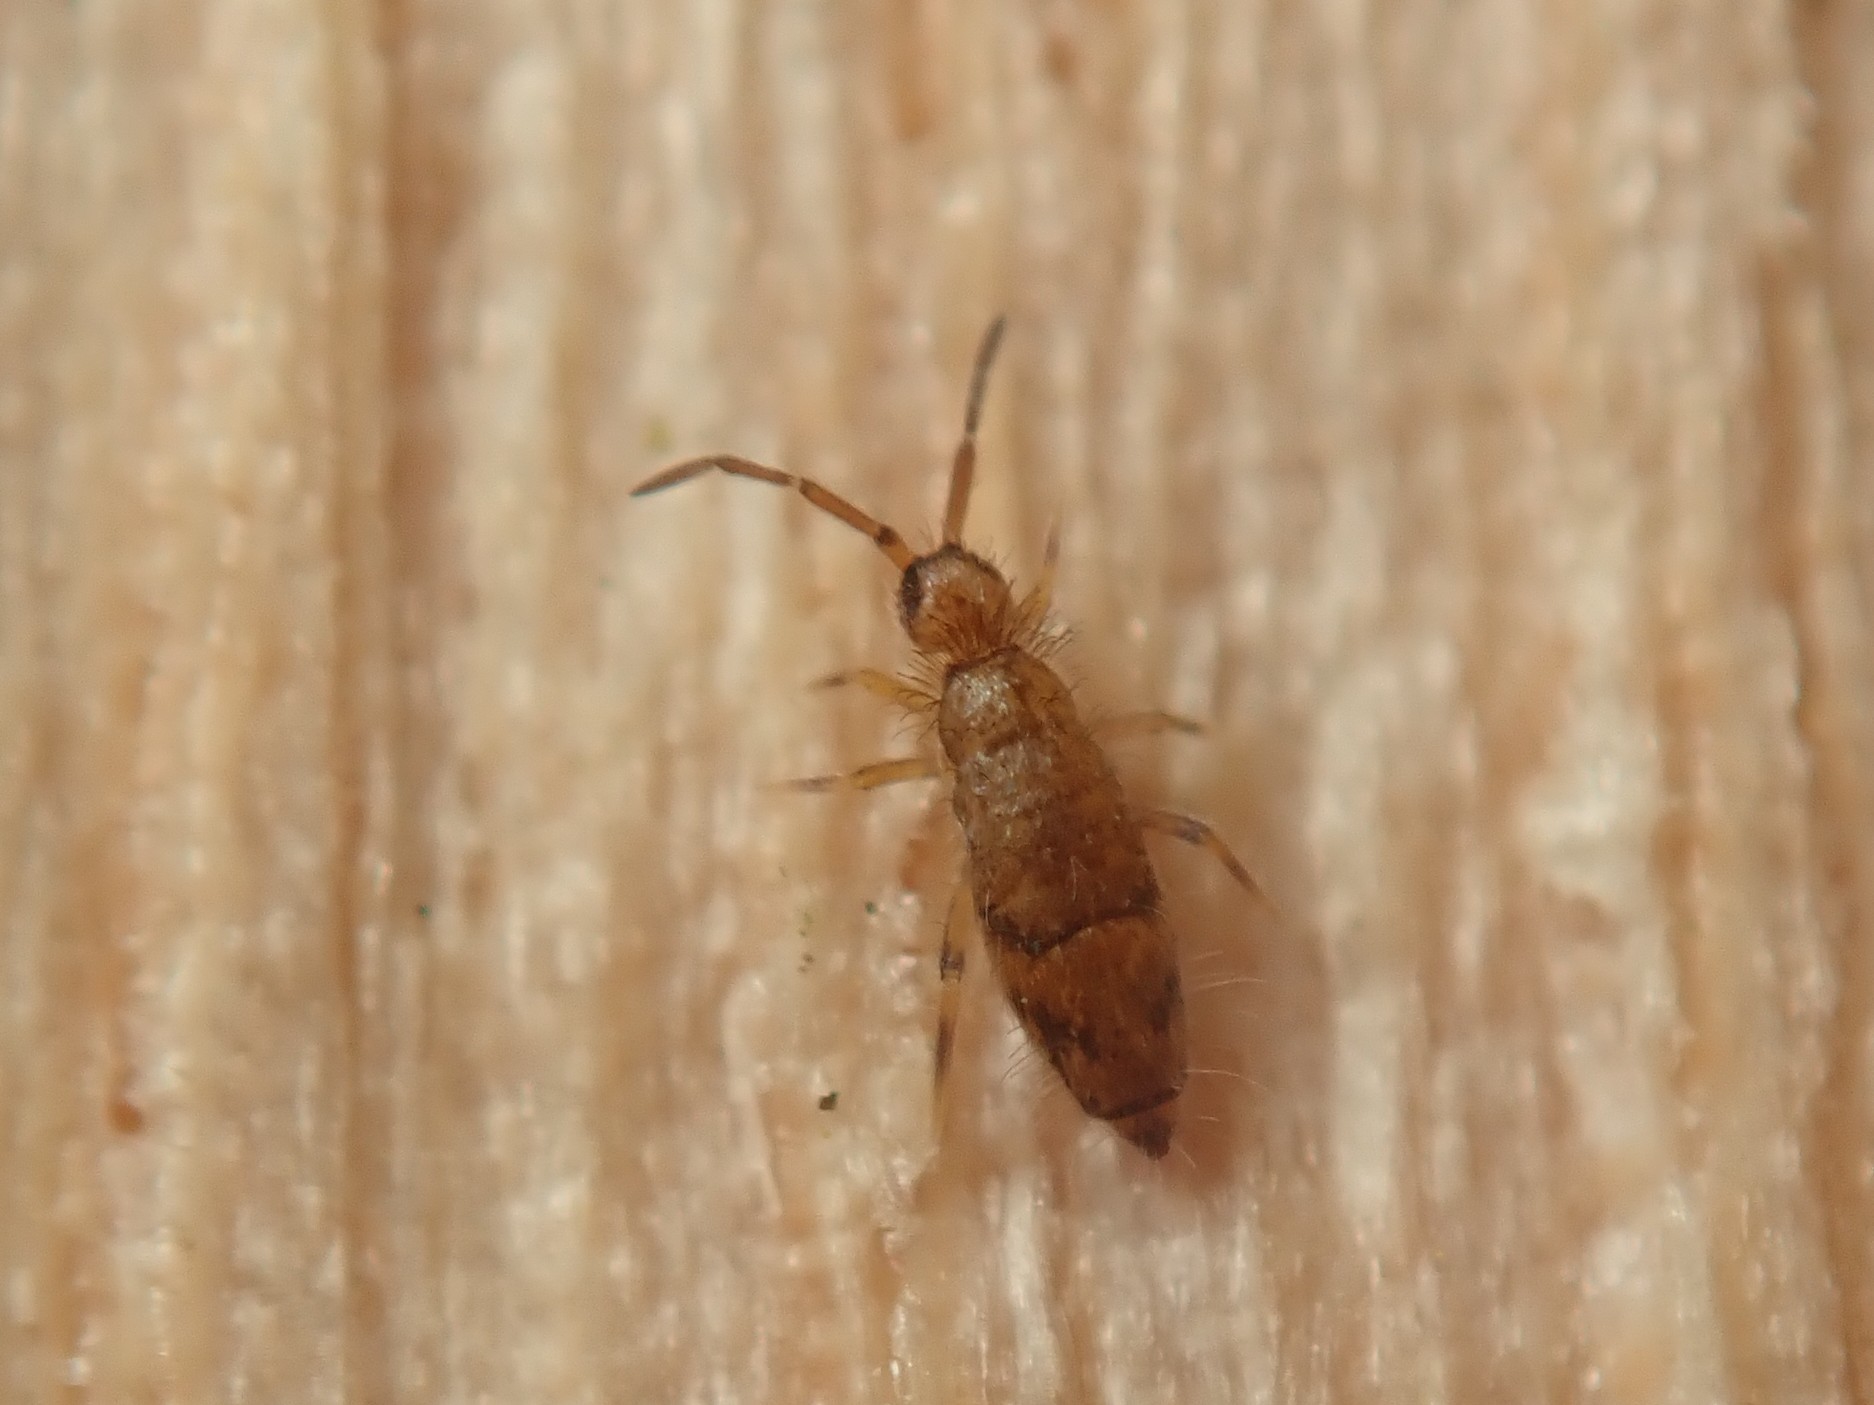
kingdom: Animalia
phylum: Arthropoda
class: Collembola
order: Entomobryomorpha
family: Entomobryidae
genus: Willowsia
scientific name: Willowsia nigromaculata
